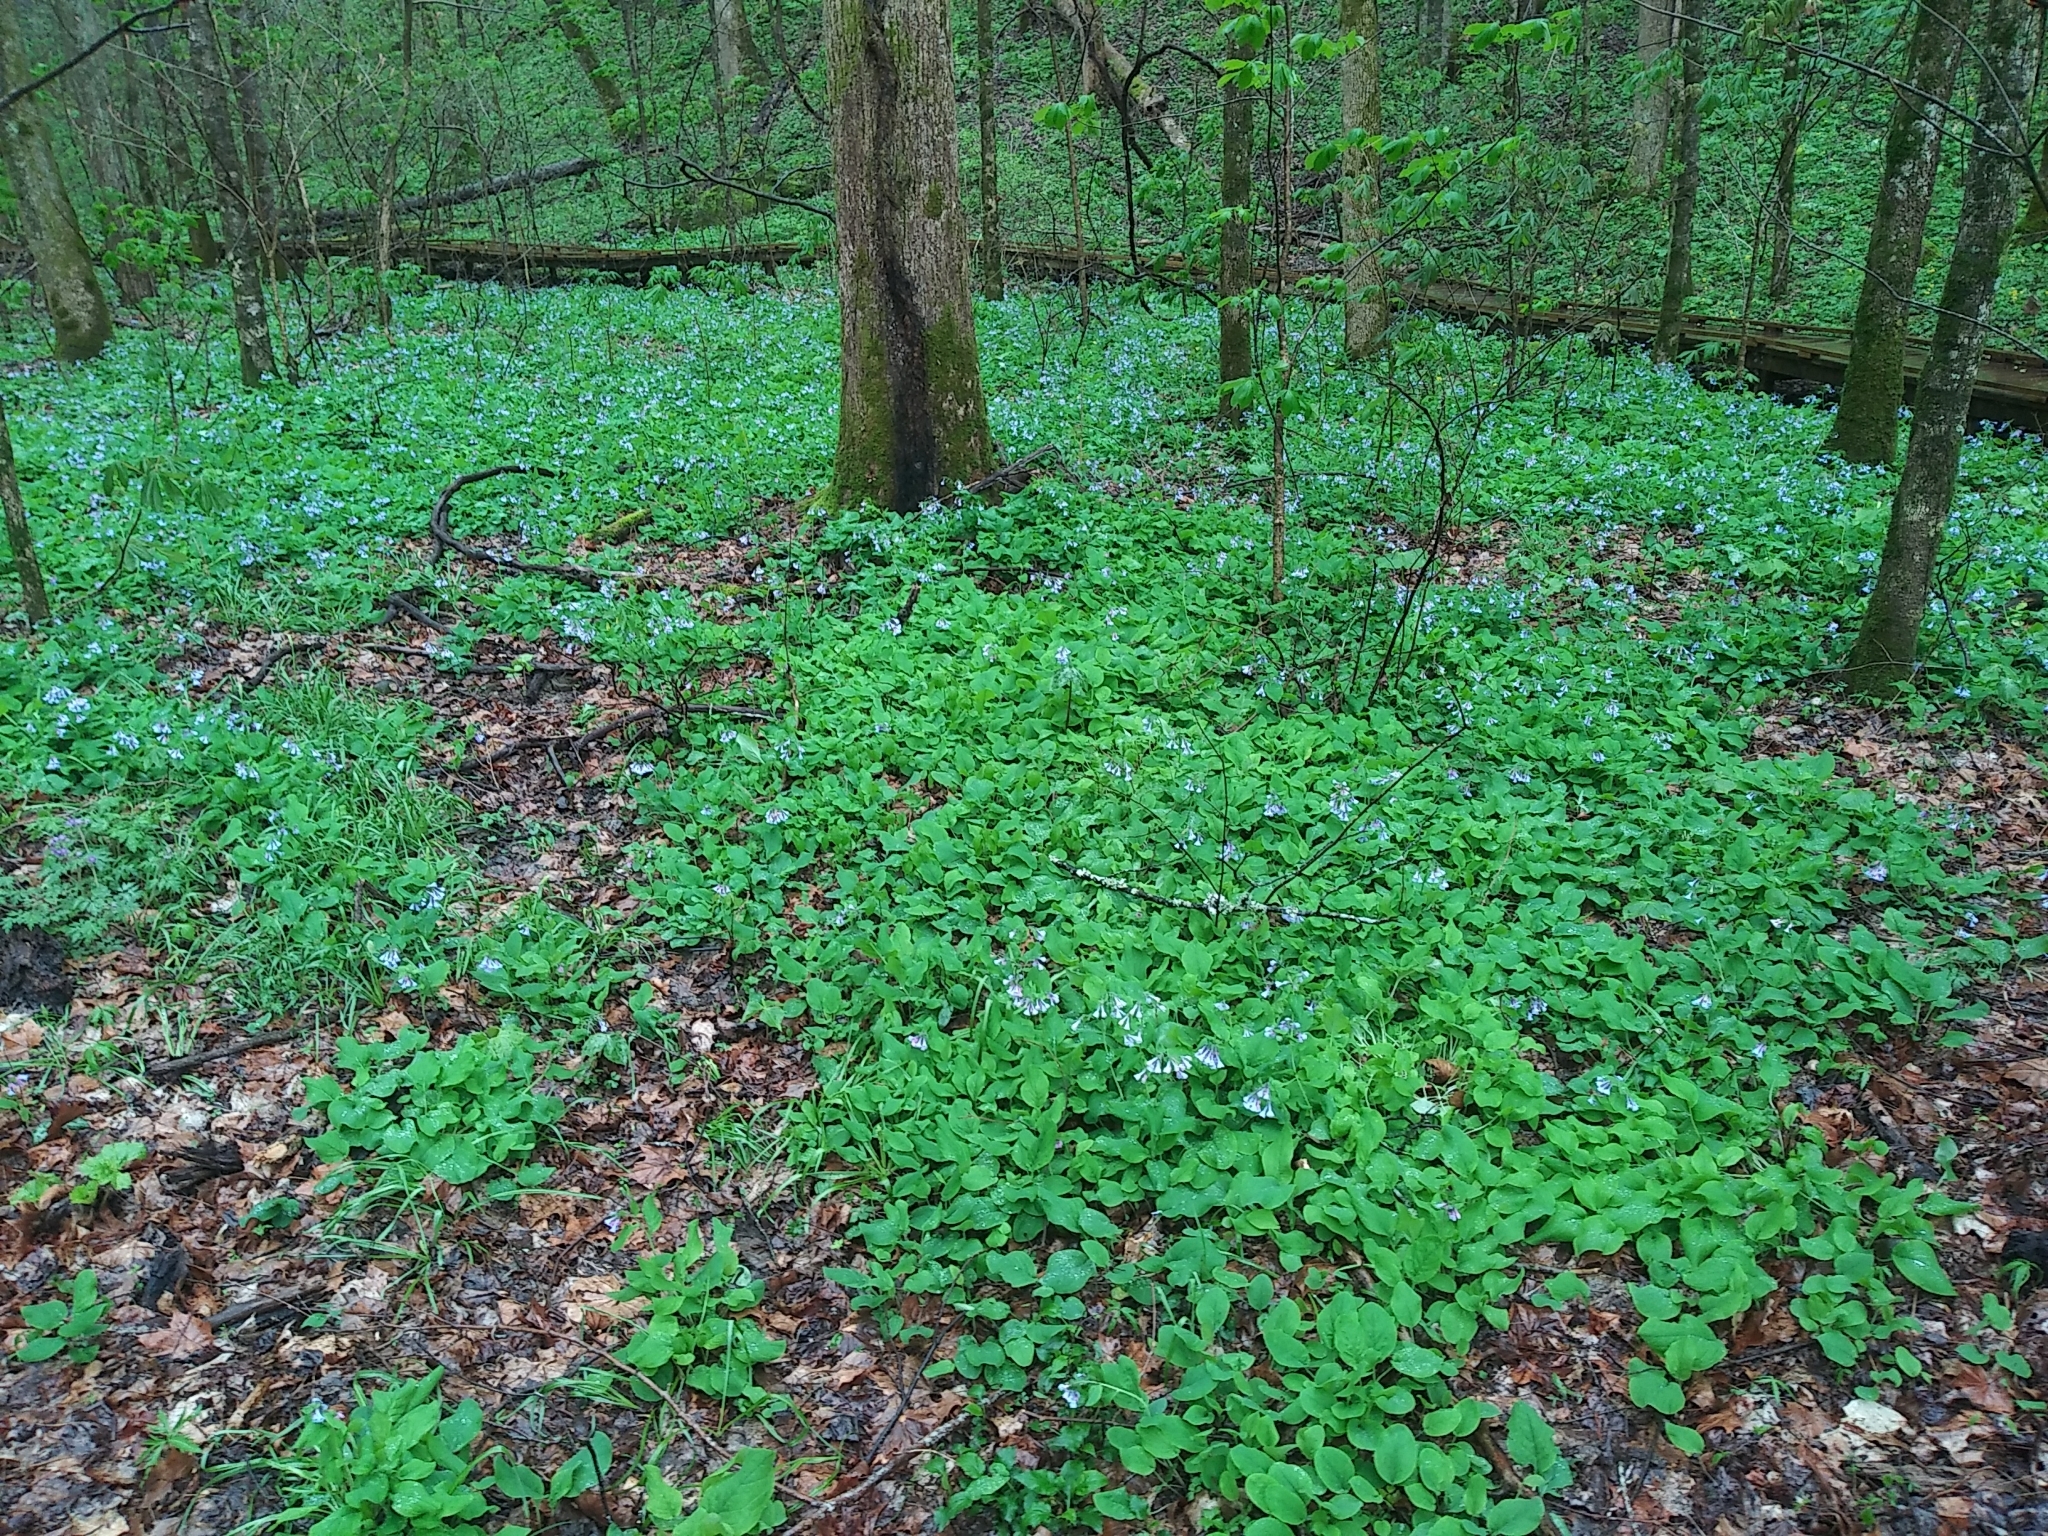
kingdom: Plantae
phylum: Tracheophyta
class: Magnoliopsida
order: Boraginales
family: Boraginaceae
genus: Mertensia
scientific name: Mertensia virginica
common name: Virginia bluebells
